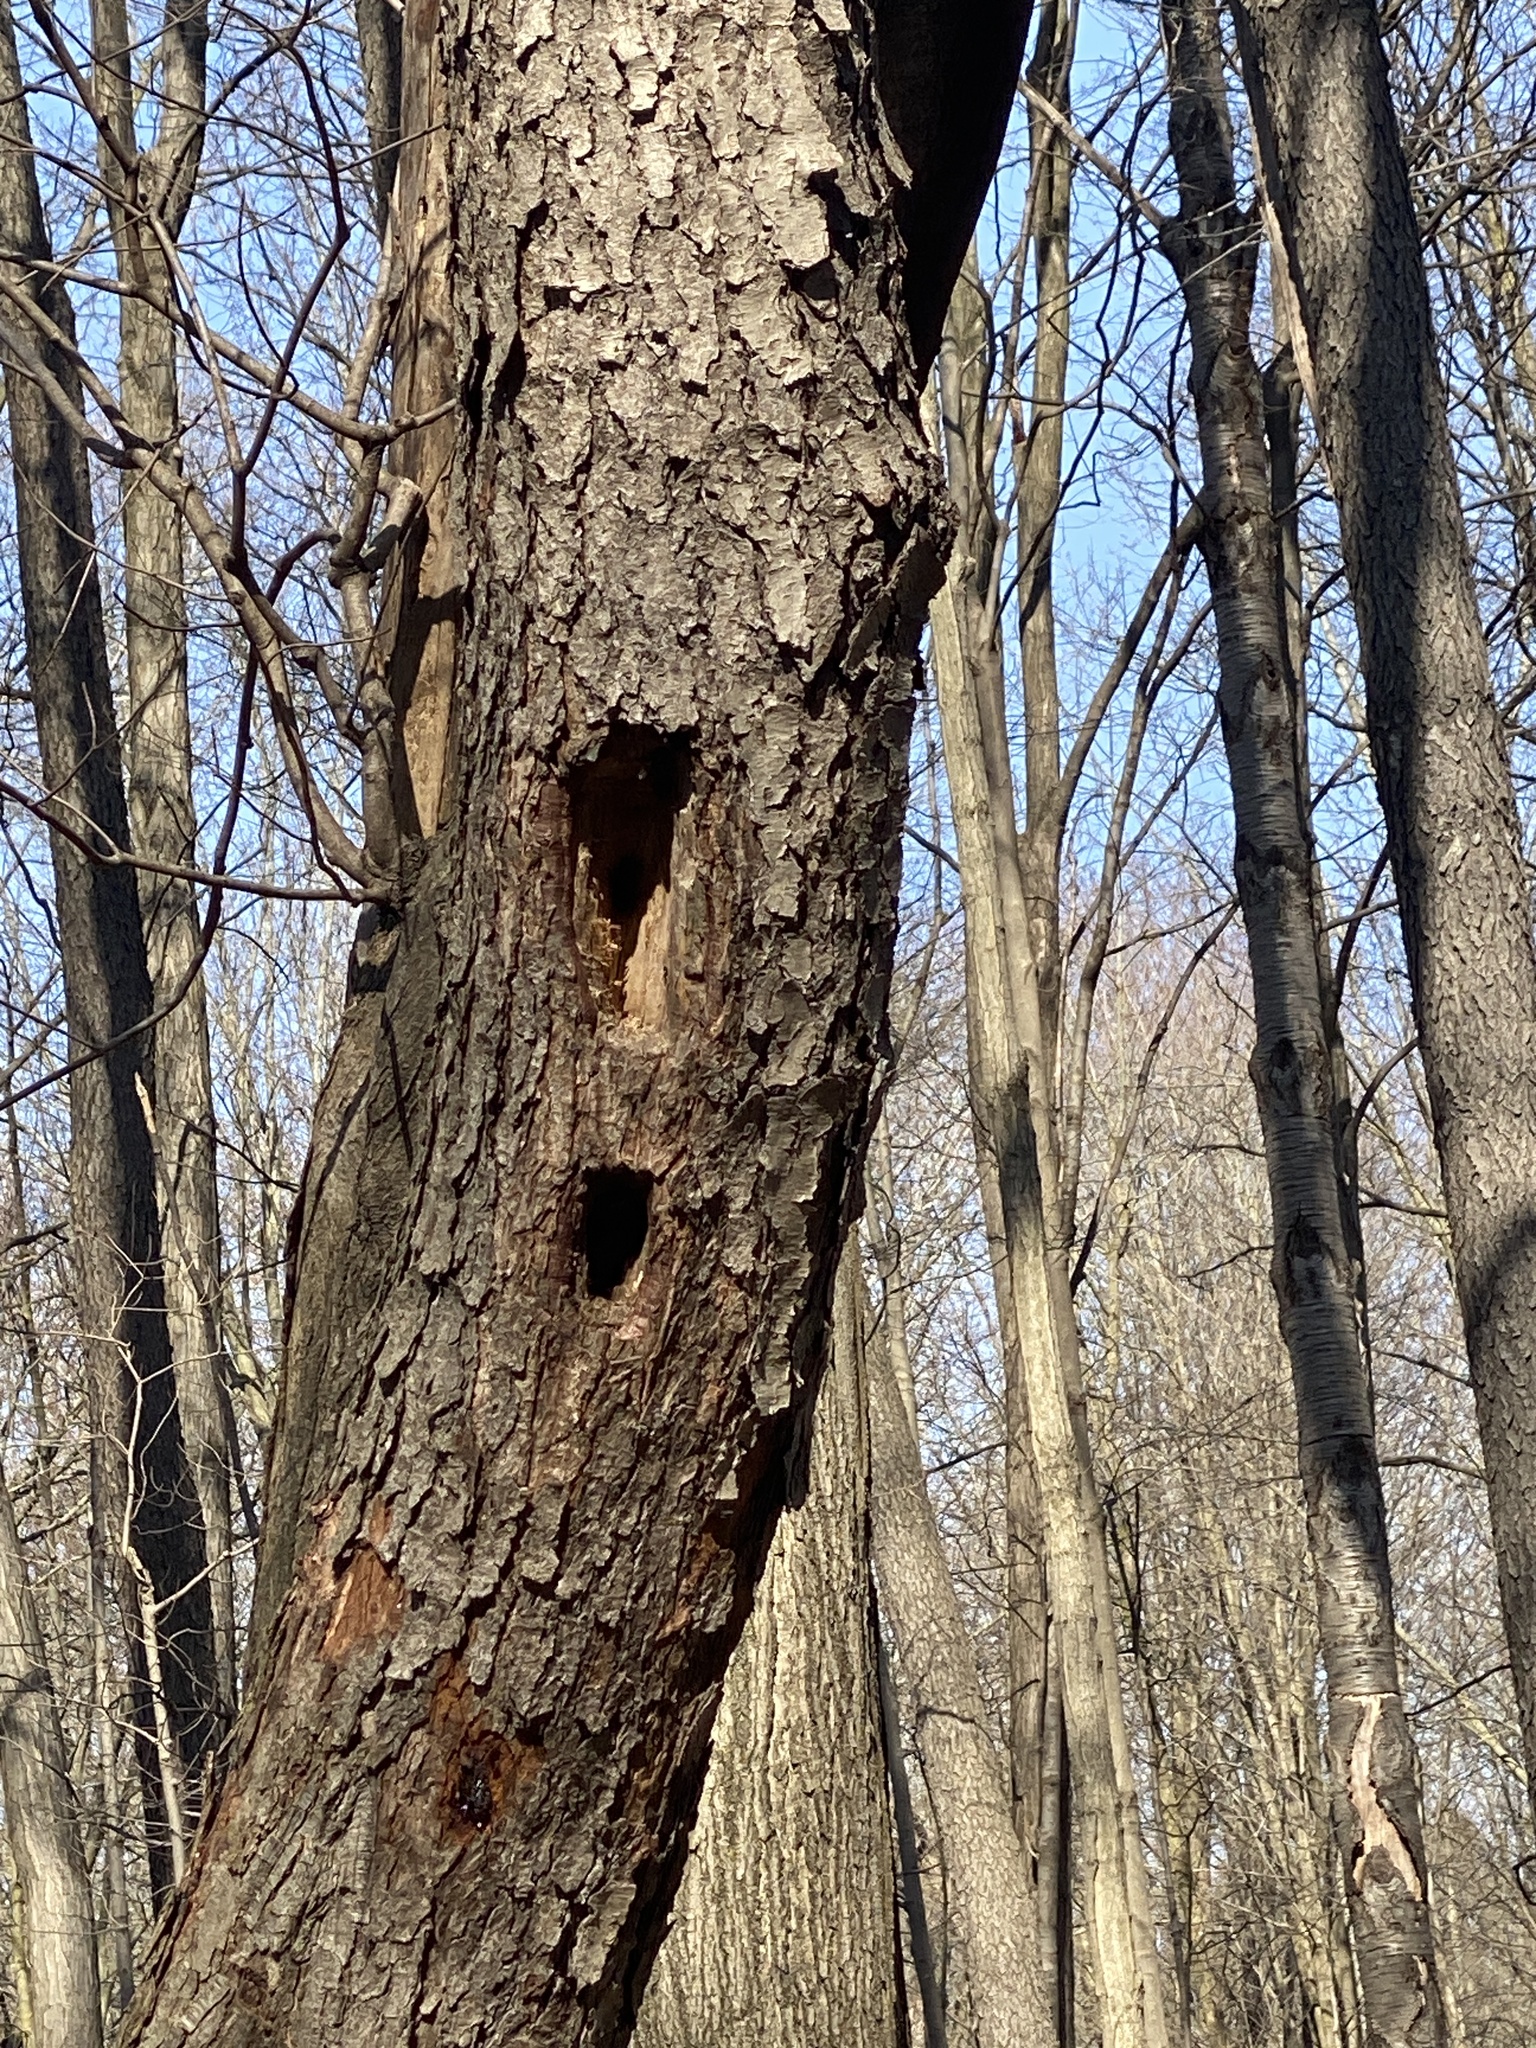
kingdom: Animalia
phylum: Chordata
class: Aves
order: Piciformes
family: Picidae
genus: Dryocopus
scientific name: Dryocopus pileatus
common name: Pileated woodpecker
